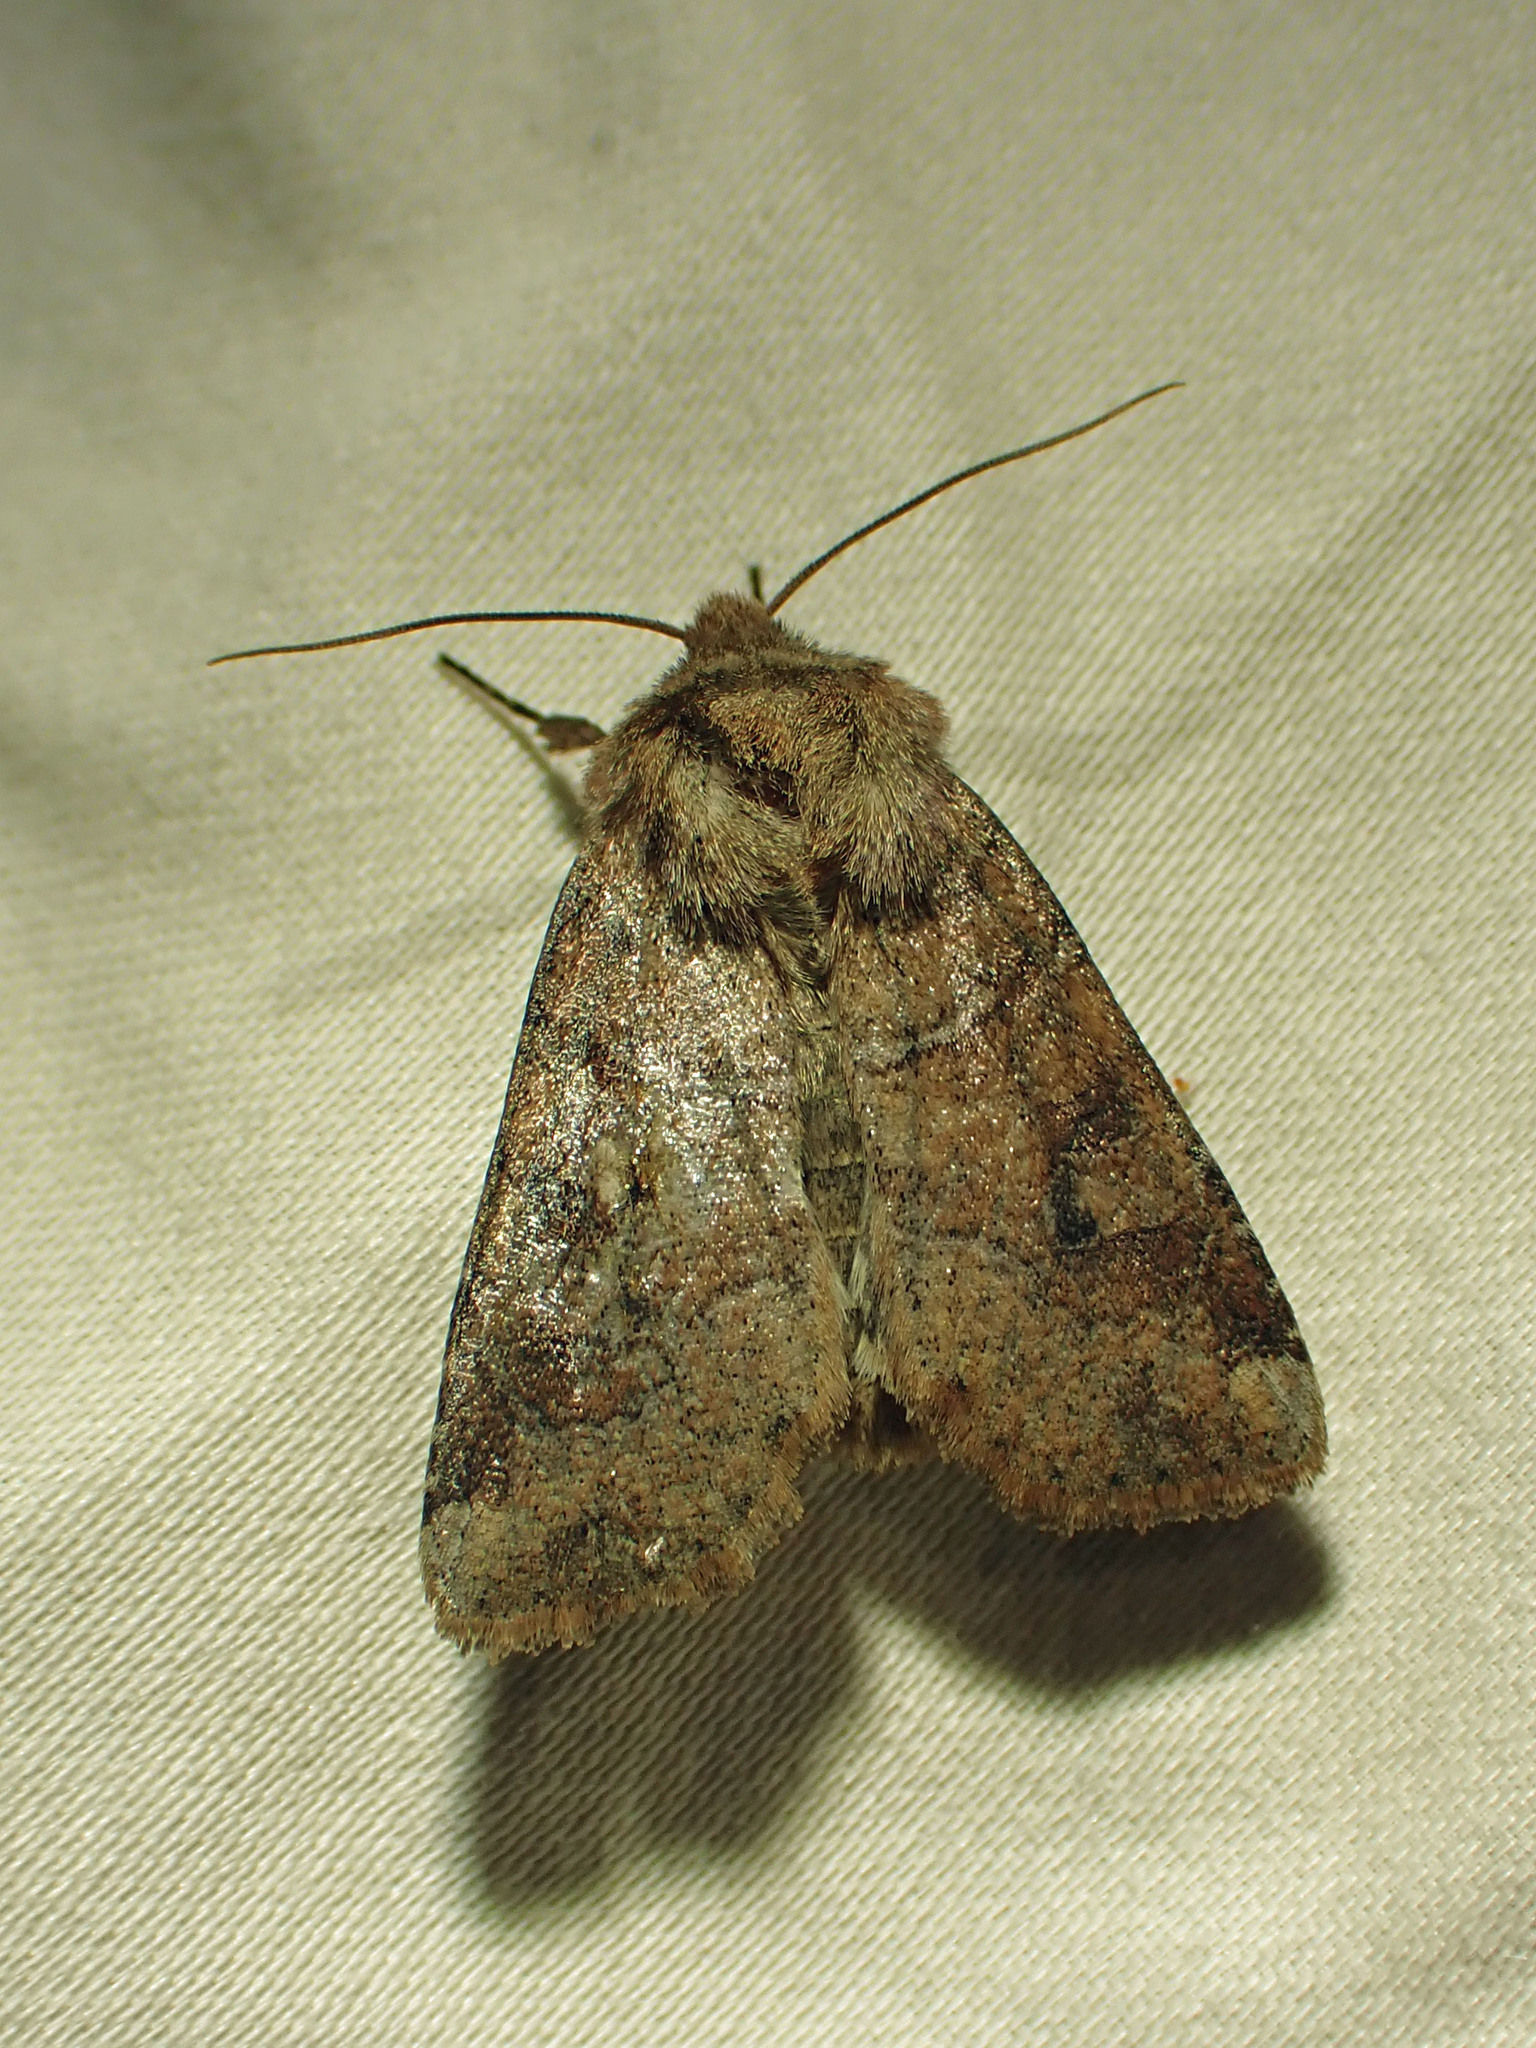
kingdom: Animalia
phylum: Arthropoda
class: Insecta
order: Lepidoptera
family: Noctuidae
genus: Crocigrapha
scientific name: Crocigrapha normani
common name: Norman's quaker
